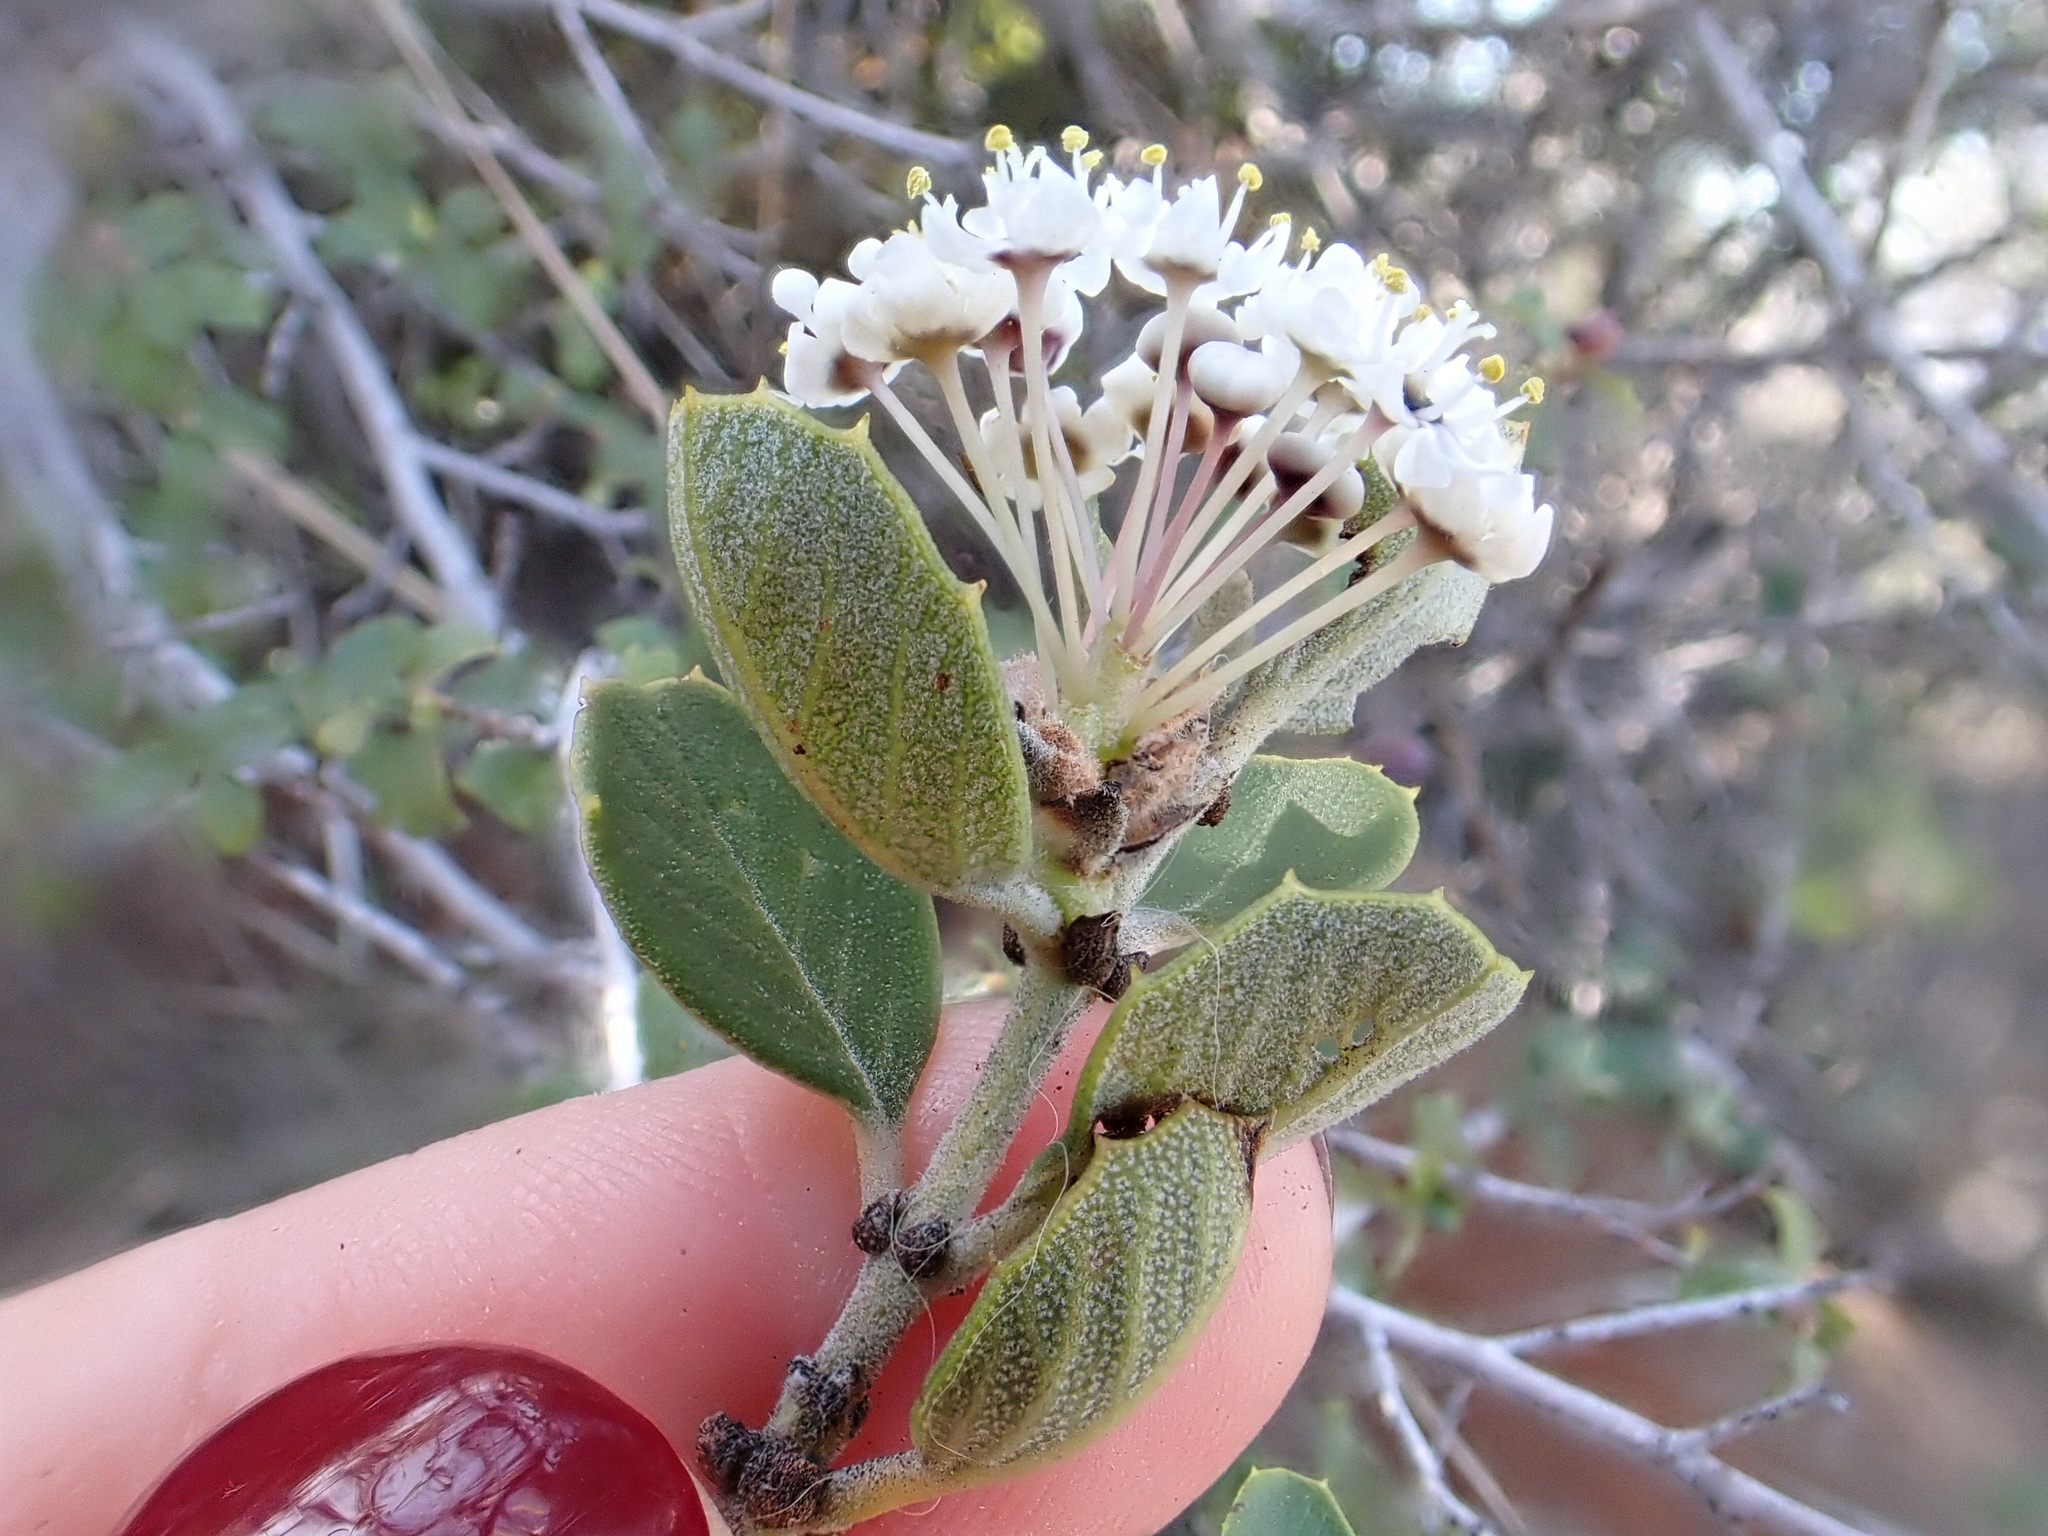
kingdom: Plantae
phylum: Tracheophyta
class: Magnoliopsida
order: Rosales
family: Rhamnaceae
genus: Ceanothus
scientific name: Ceanothus perplexans
